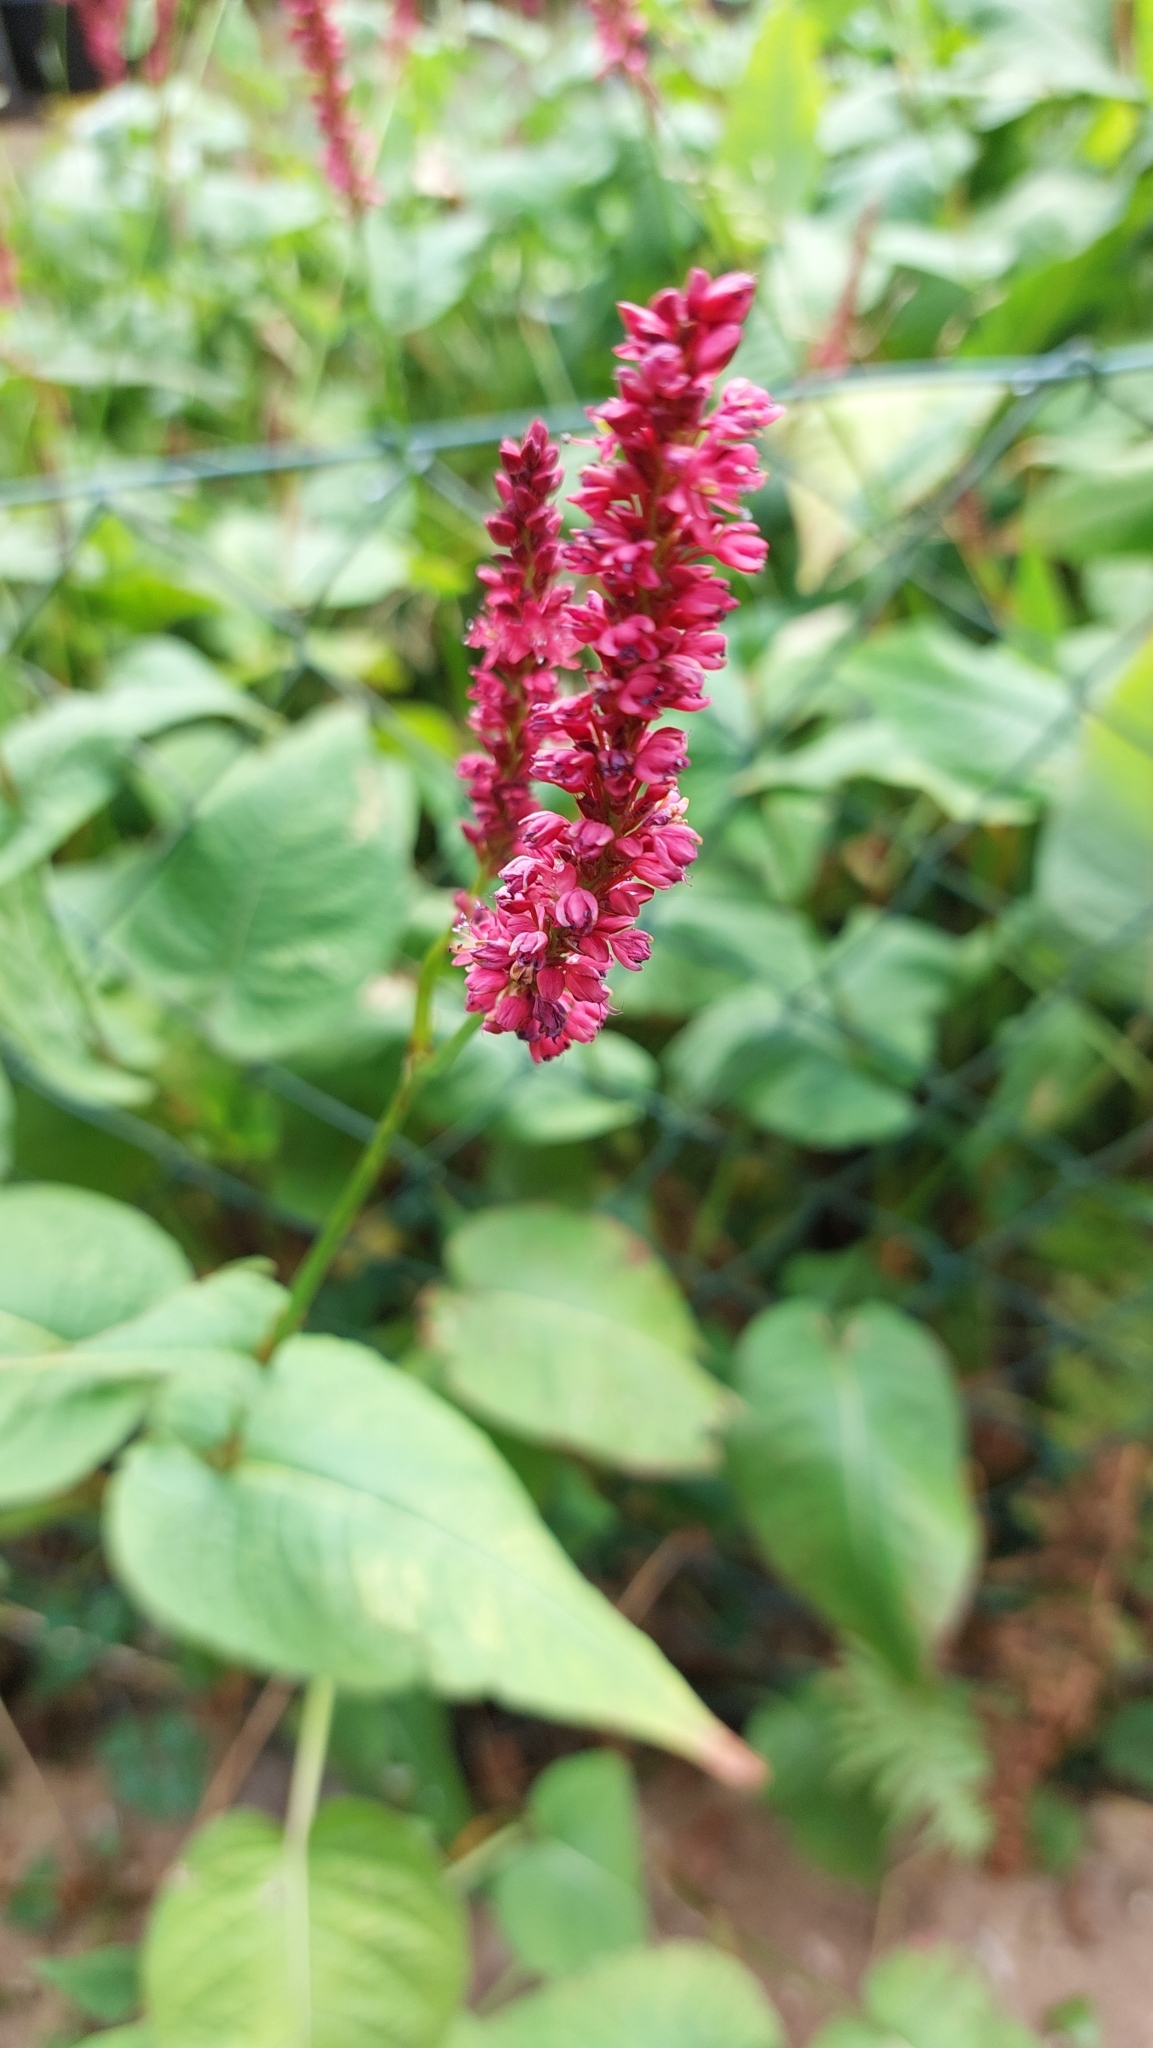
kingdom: Plantae
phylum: Tracheophyta
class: Magnoliopsida
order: Caryophyllales
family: Polygonaceae
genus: Bistorta
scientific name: Bistorta amplexicaulis
